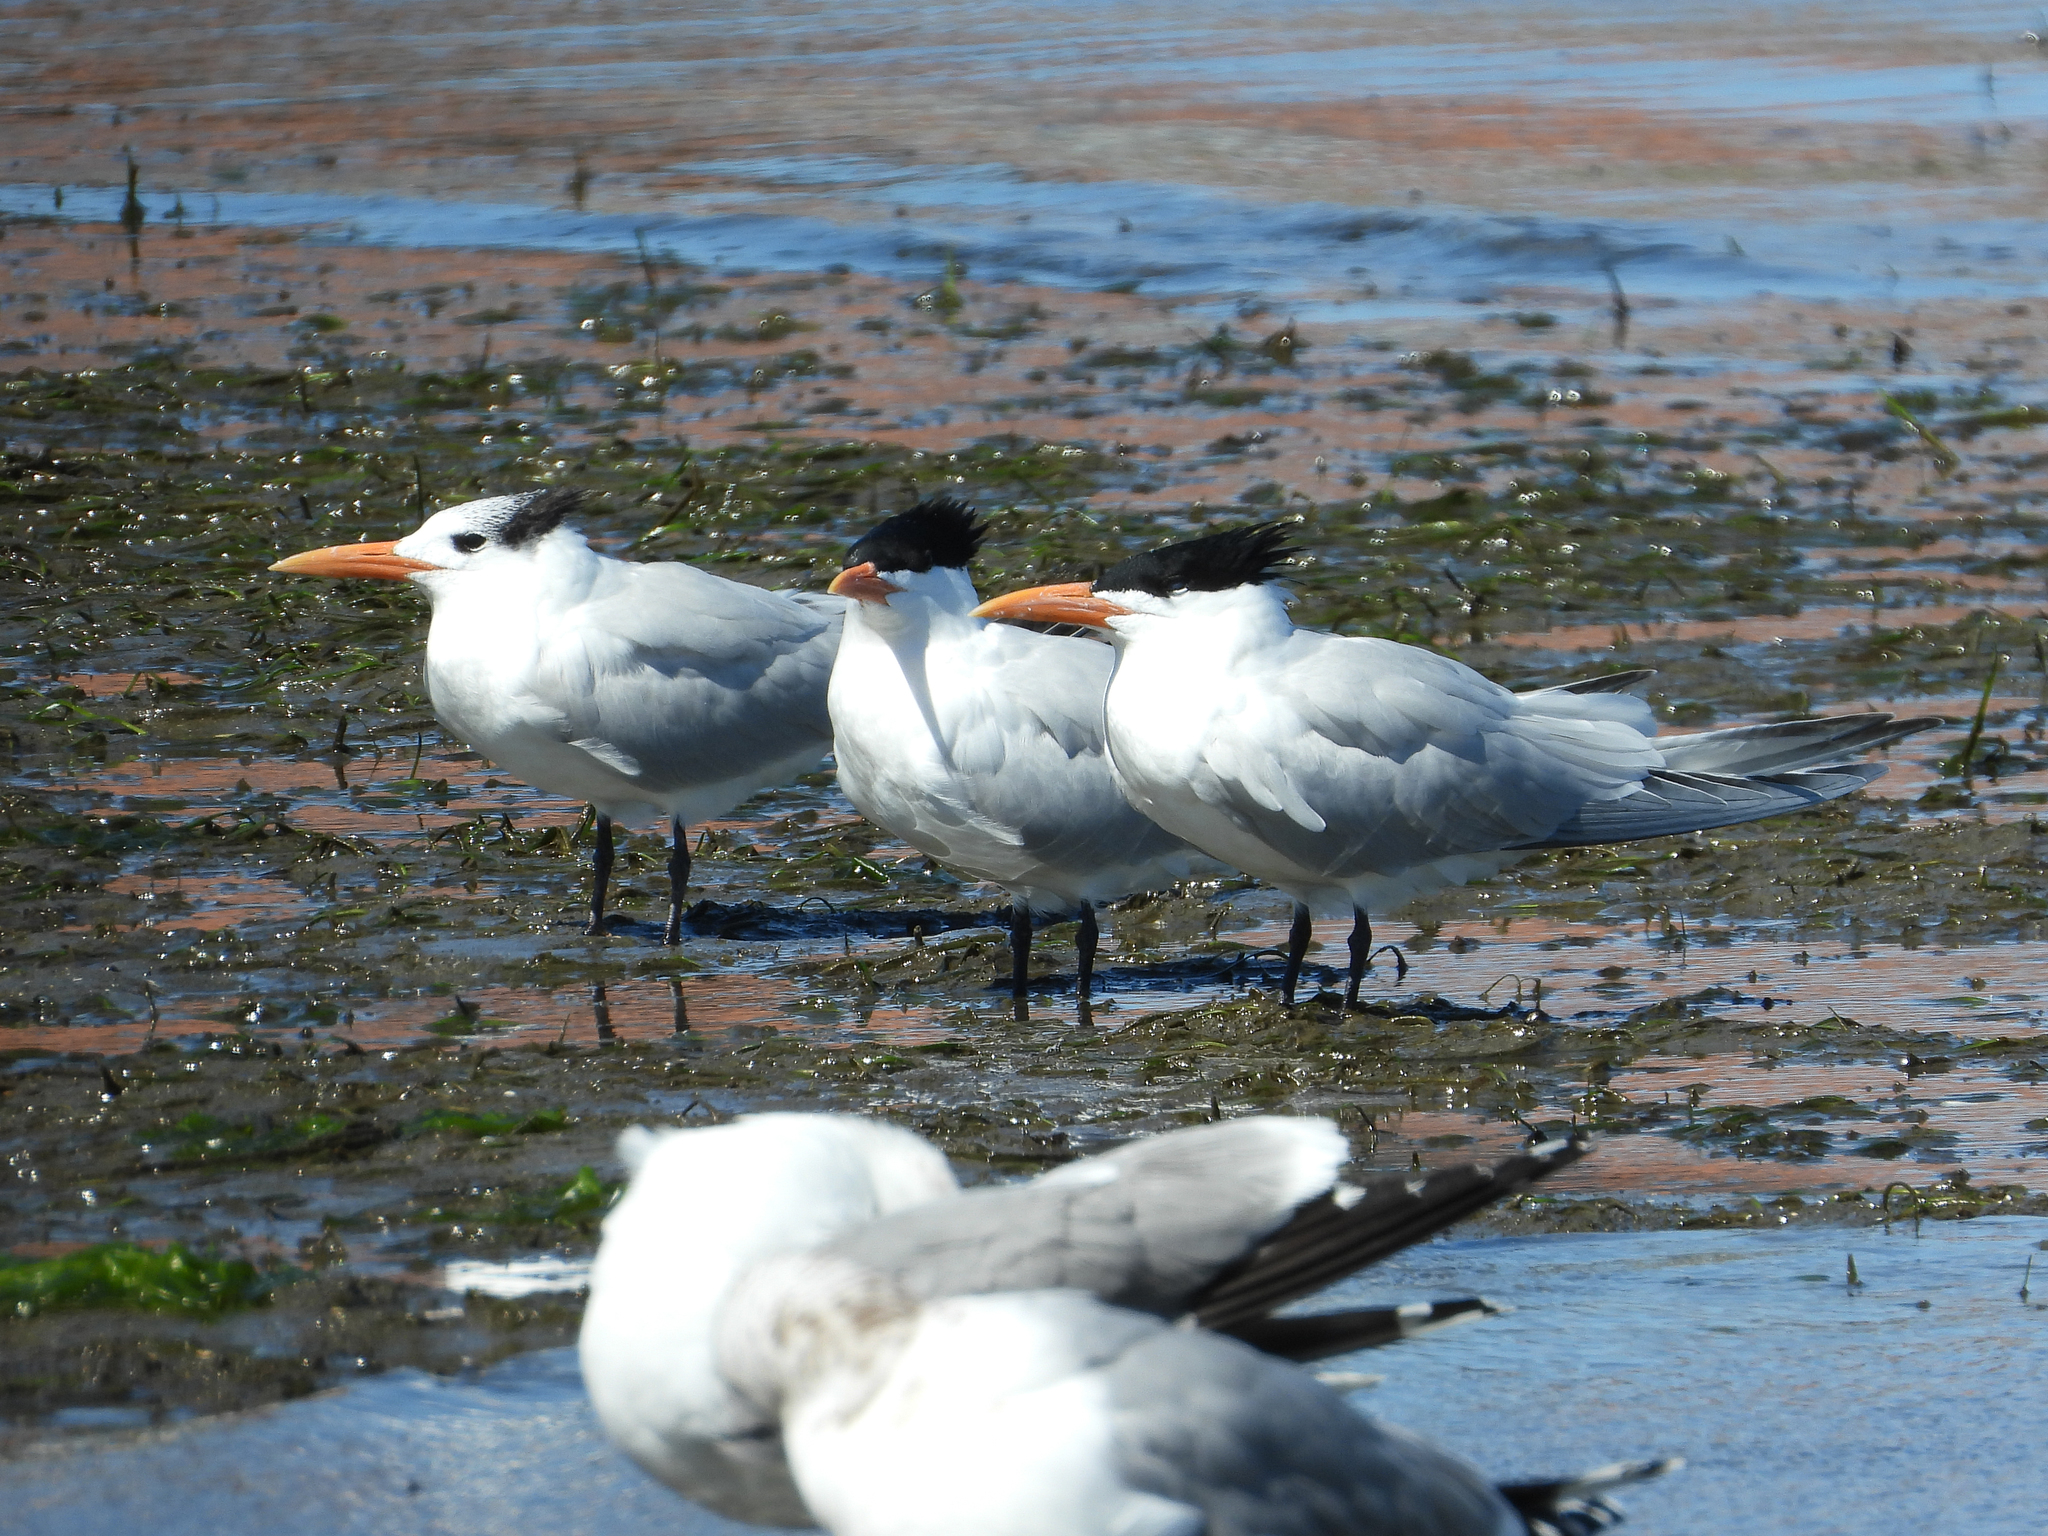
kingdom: Animalia
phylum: Chordata
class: Aves
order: Charadriiformes
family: Laridae
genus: Thalasseus
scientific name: Thalasseus maximus
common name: Royal tern
